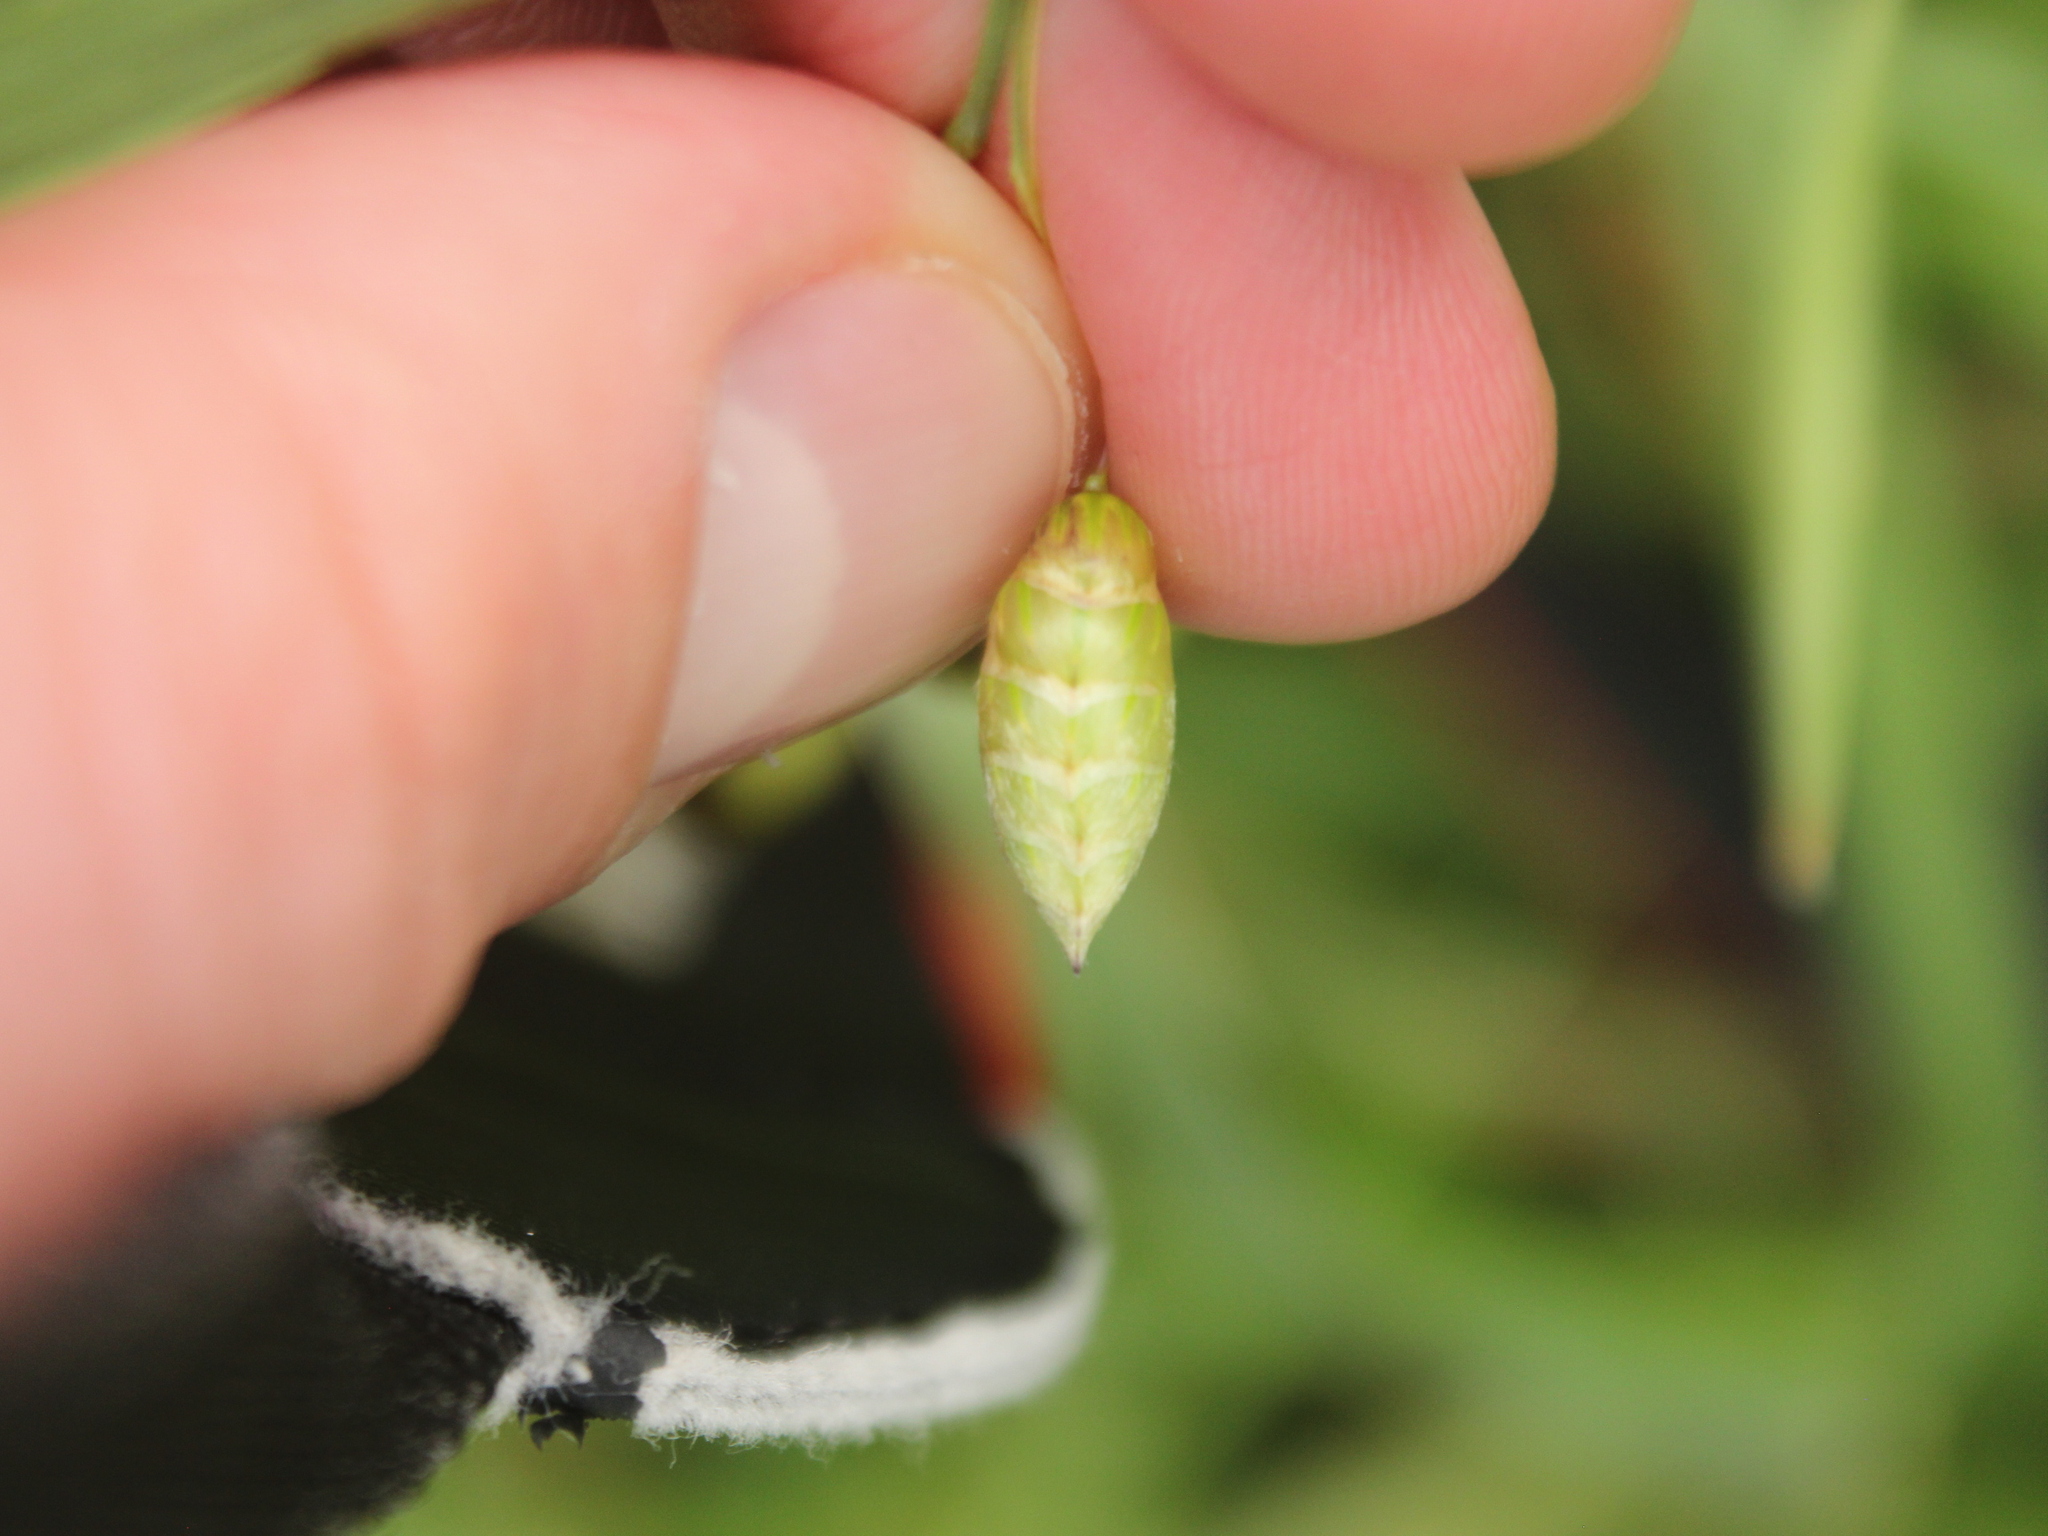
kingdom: Plantae
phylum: Tracheophyta
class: Liliopsida
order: Poales
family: Poaceae
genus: Briza
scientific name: Briza maxima
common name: Big quakinggrass
